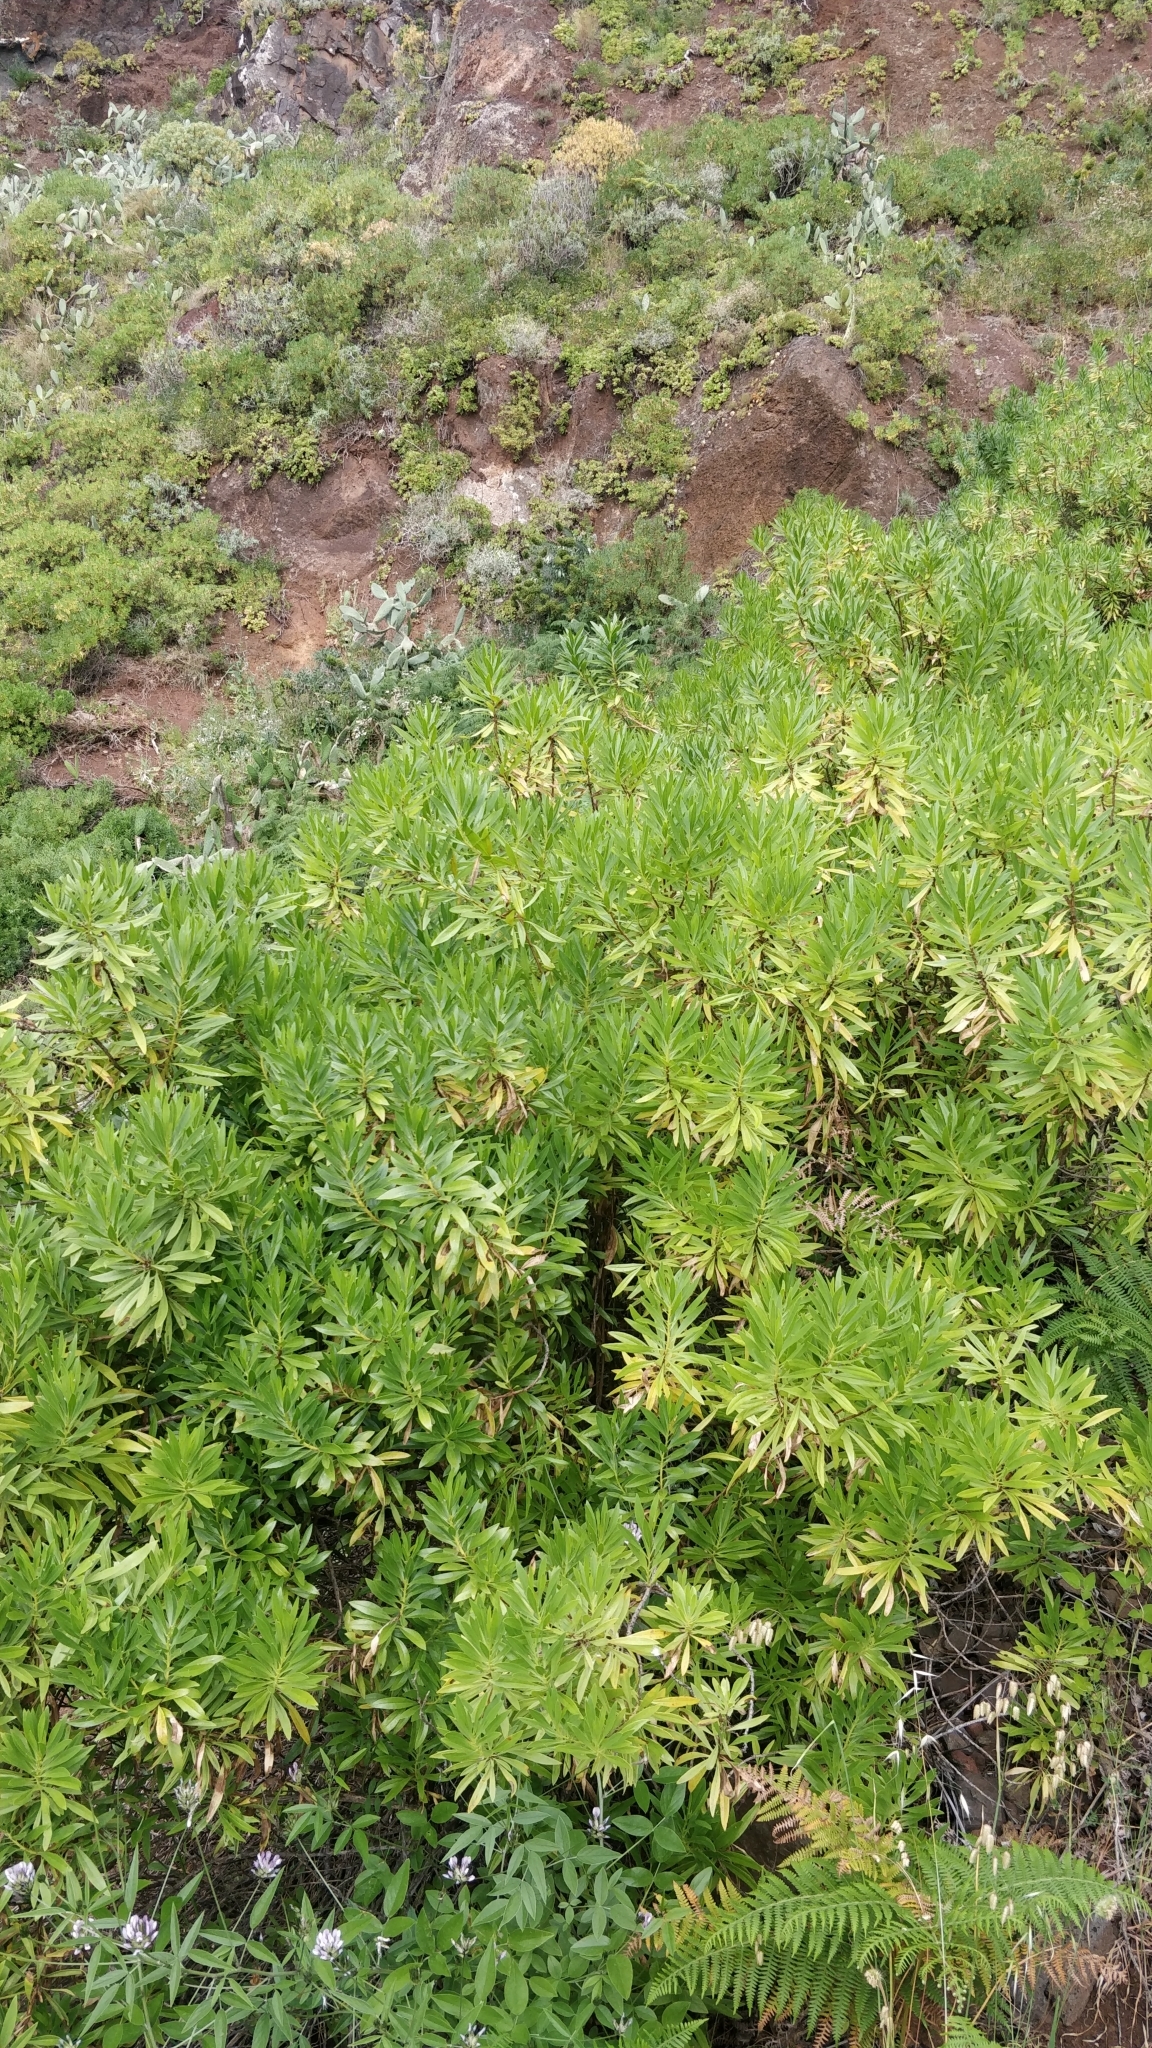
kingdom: Plantae
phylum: Tracheophyta
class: Magnoliopsida
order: Lamiales
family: Plantaginaceae
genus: Globularia
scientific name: Globularia salicina
